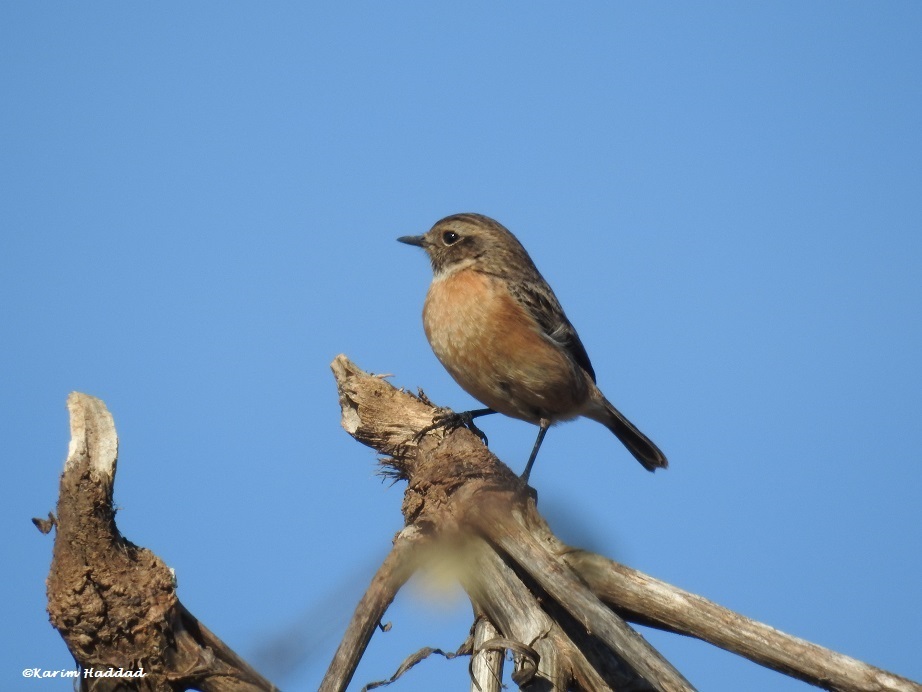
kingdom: Animalia
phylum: Chordata
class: Aves
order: Passeriformes
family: Muscicapidae
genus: Saxicola
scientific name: Saxicola rubicola
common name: European stonechat
